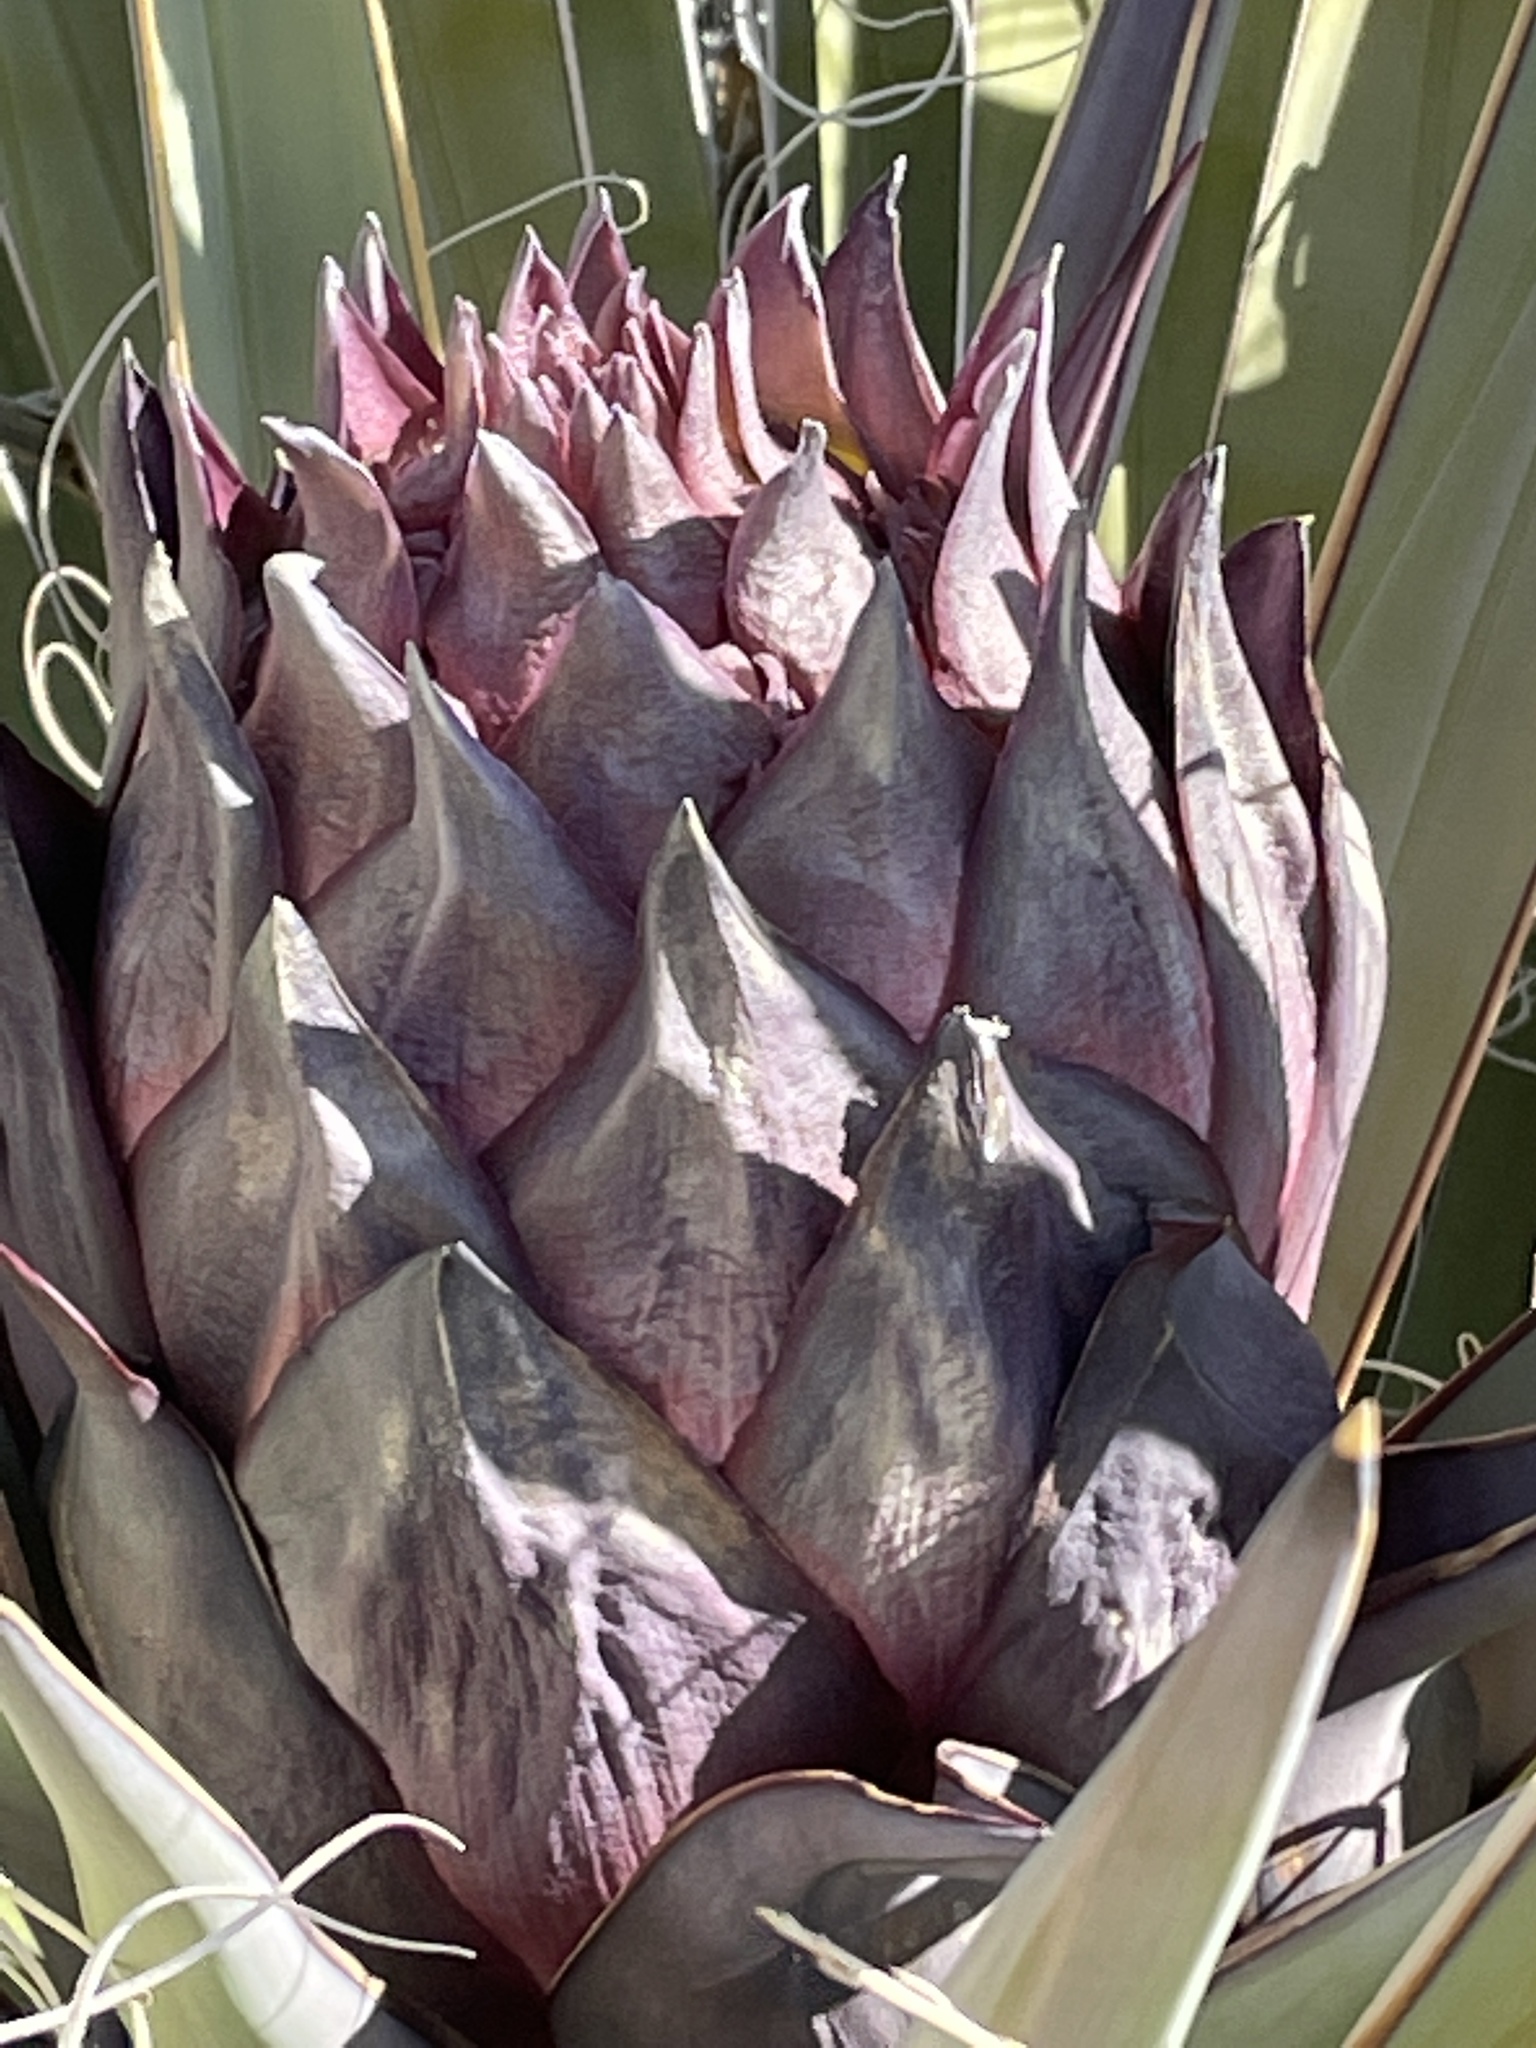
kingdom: Plantae
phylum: Tracheophyta
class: Liliopsida
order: Asparagales
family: Asparagaceae
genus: Yucca
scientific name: Yucca schidigera
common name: Mojave yucca
